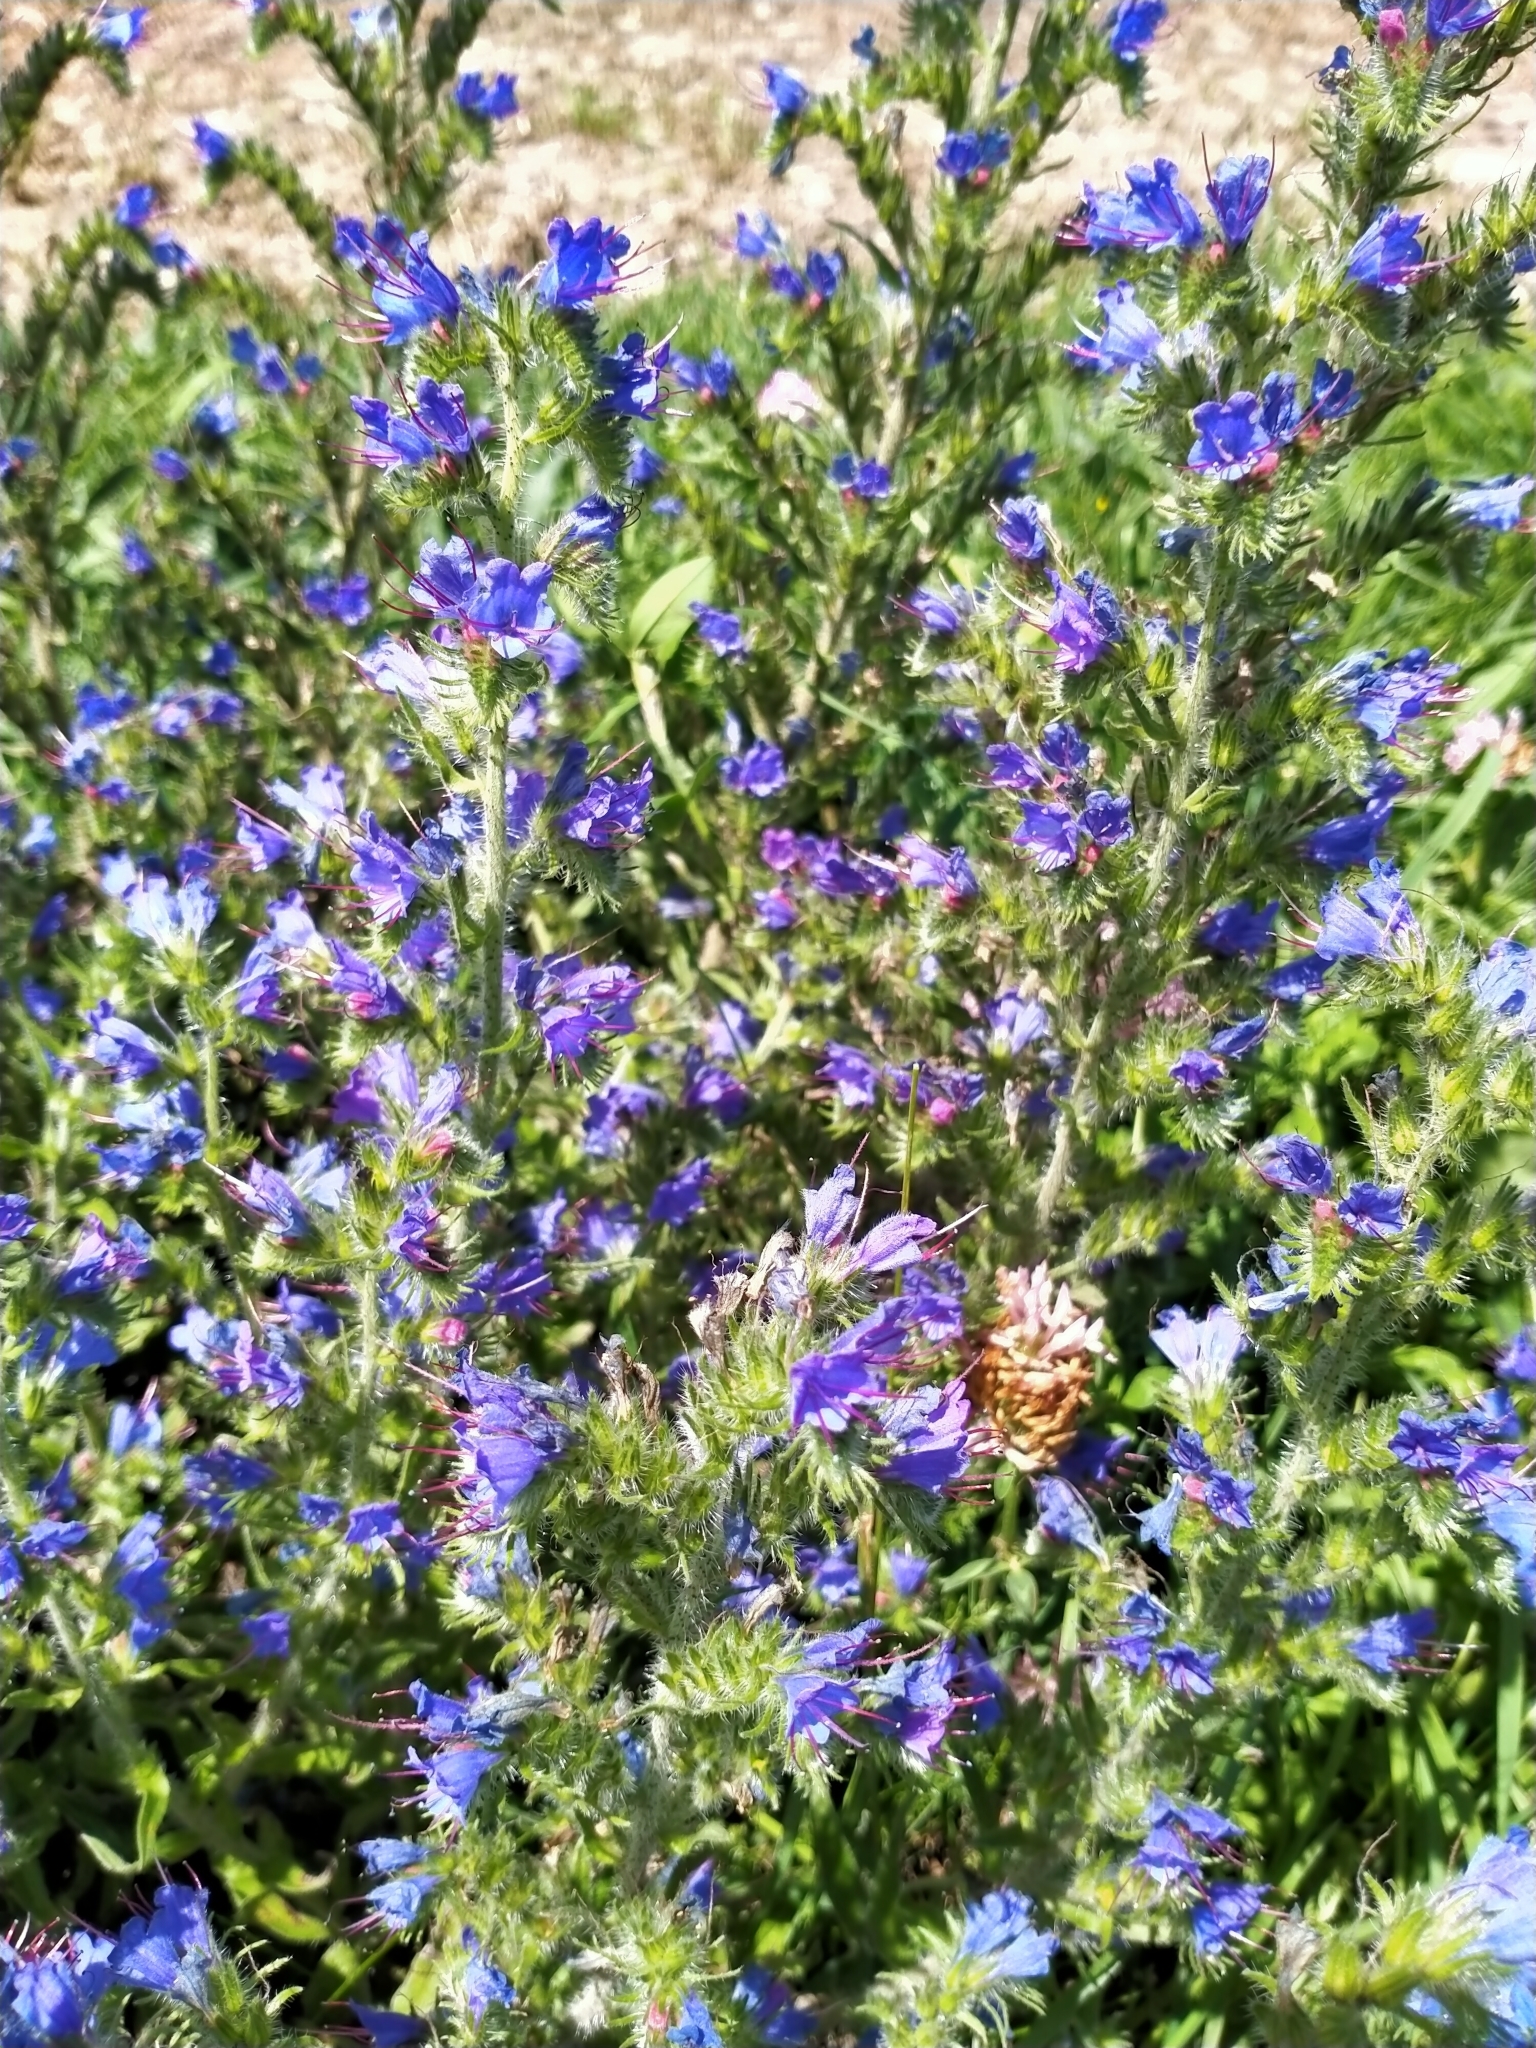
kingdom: Plantae
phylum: Tracheophyta
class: Magnoliopsida
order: Boraginales
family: Boraginaceae
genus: Echium
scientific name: Echium vulgare
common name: Common viper's bugloss
